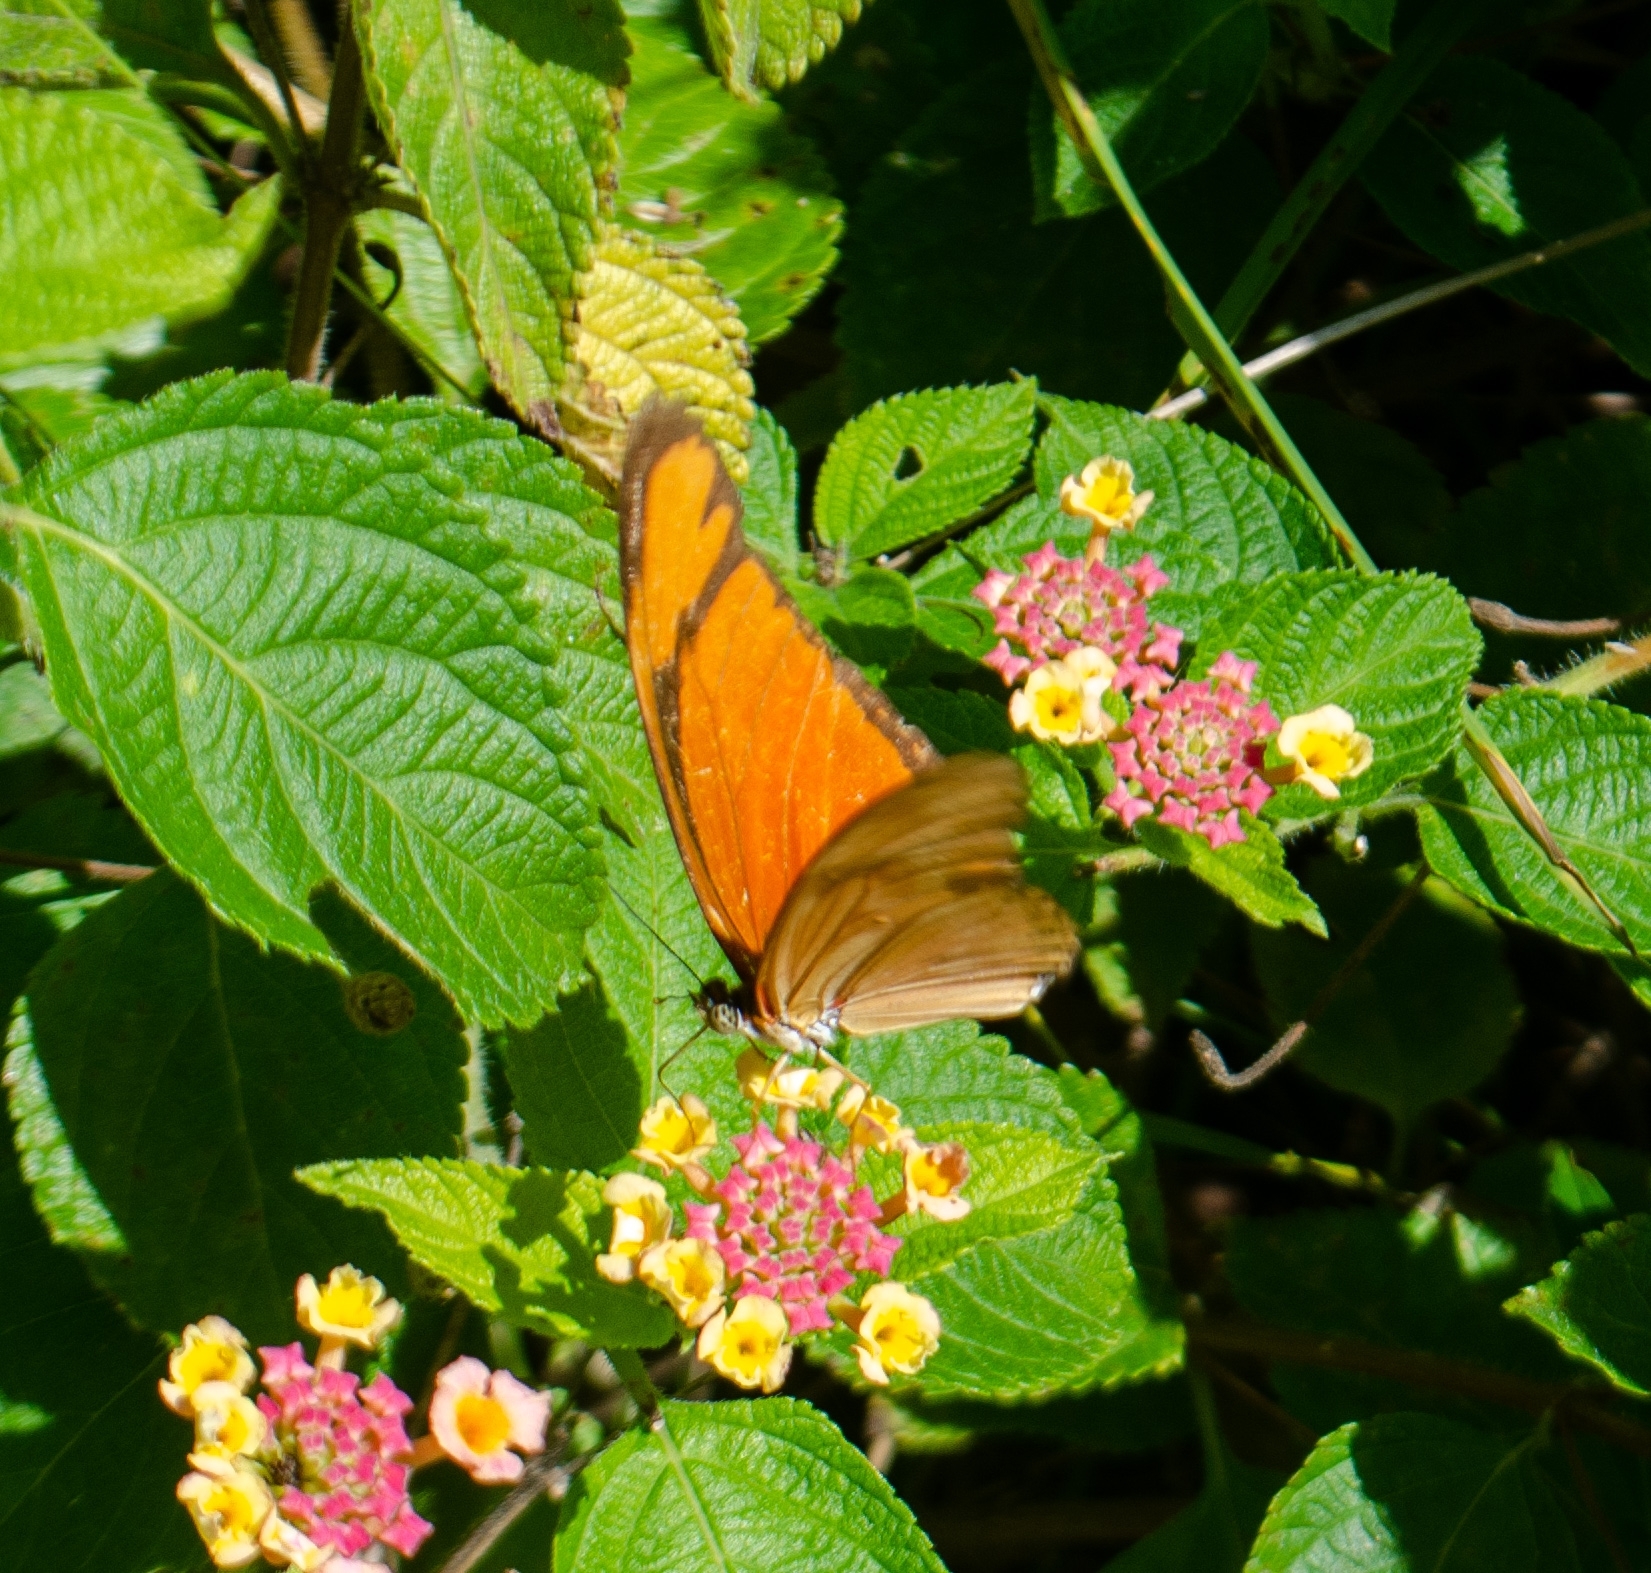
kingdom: Animalia
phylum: Arthropoda
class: Insecta
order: Lepidoptera
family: Nymphalidae
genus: Dryas
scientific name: Dryas iulia
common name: Flambeau
